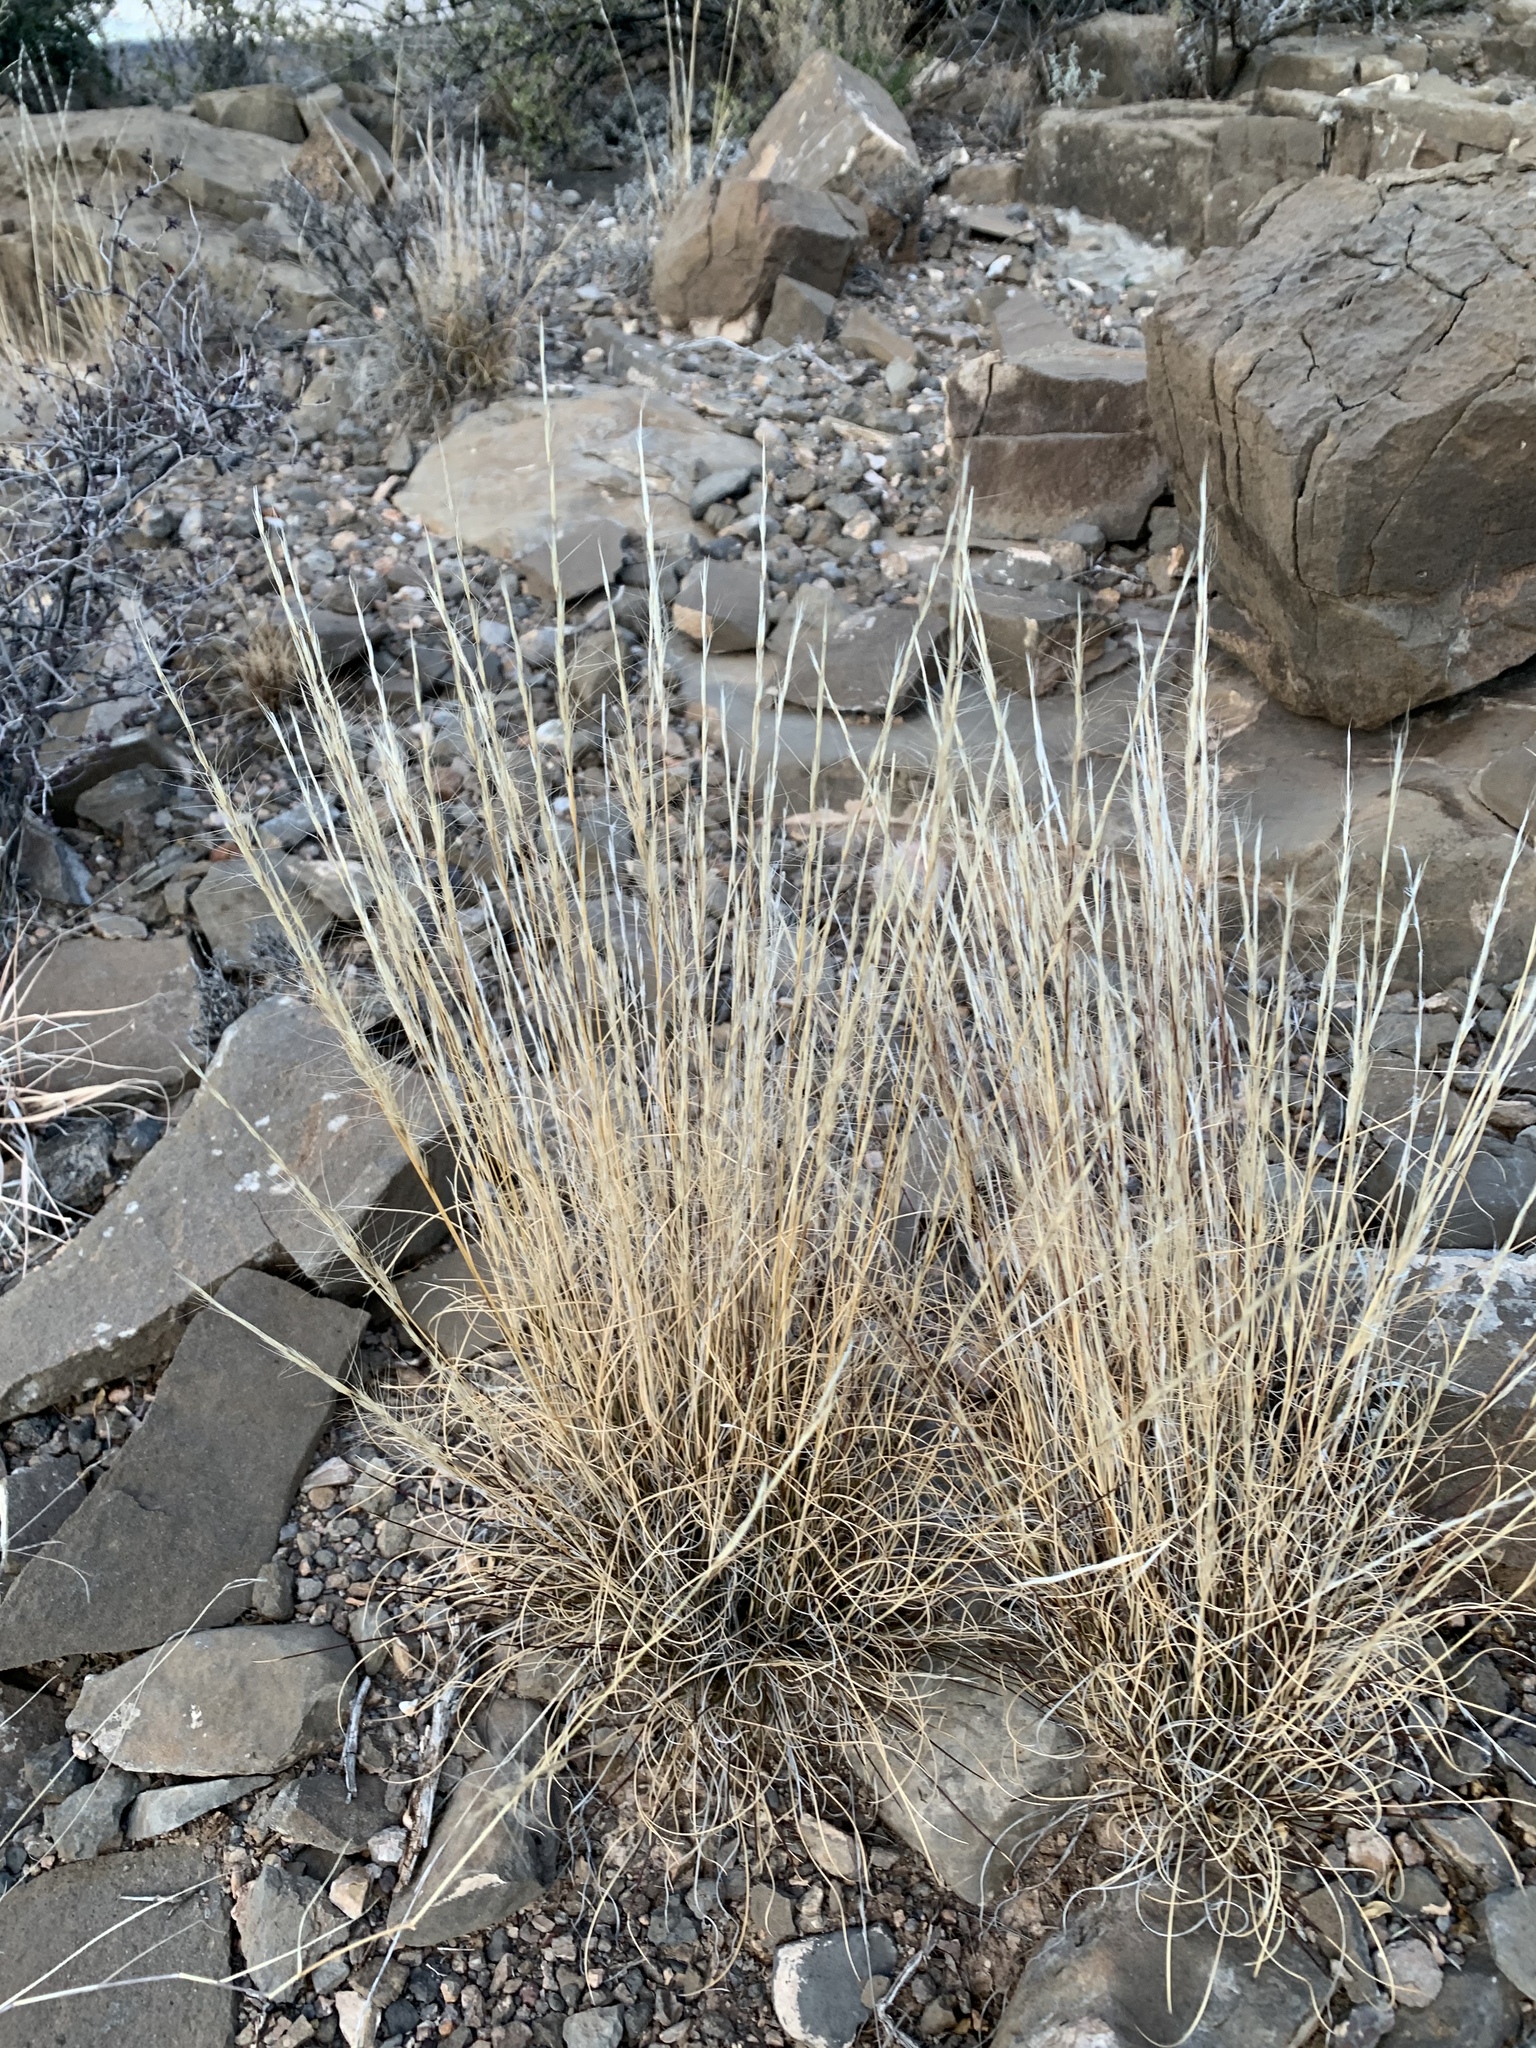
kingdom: Plantae
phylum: Tracheophyta
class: Liliopsida
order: Poales
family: Poaceae
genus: Aristida
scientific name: Aristida purpurea
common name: Purple threeawn
